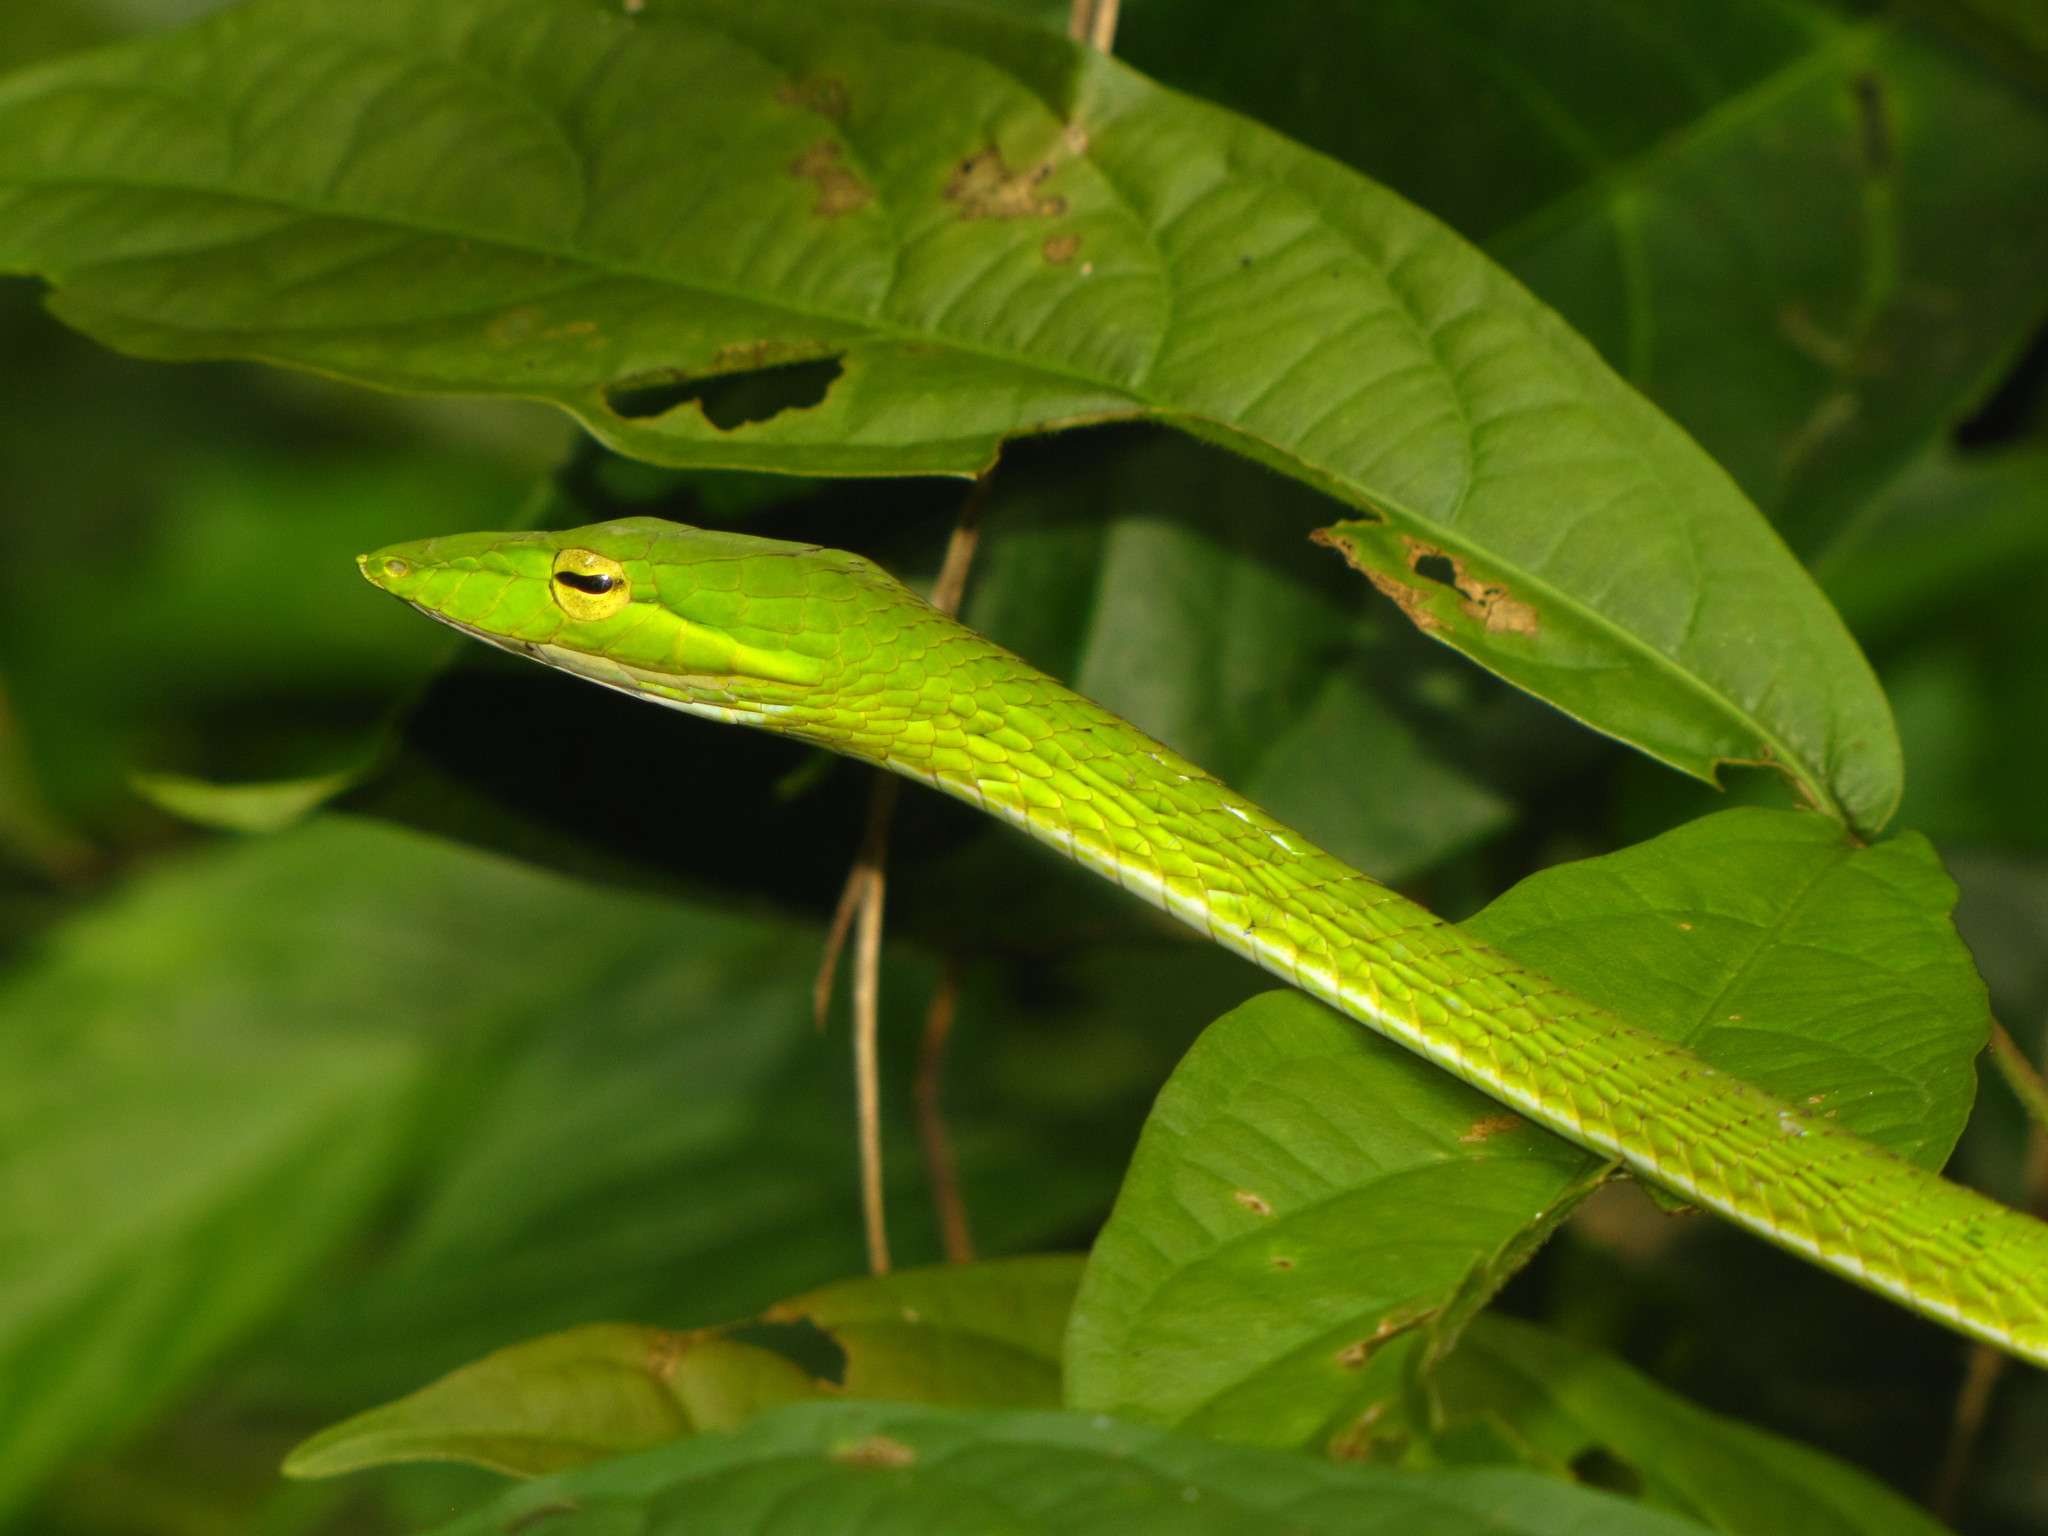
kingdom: Animalia
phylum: Chordata
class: Squamata
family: Colubridae
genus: Ahaetulla
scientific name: Ahaetulla prasina
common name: Oriental whip snake
